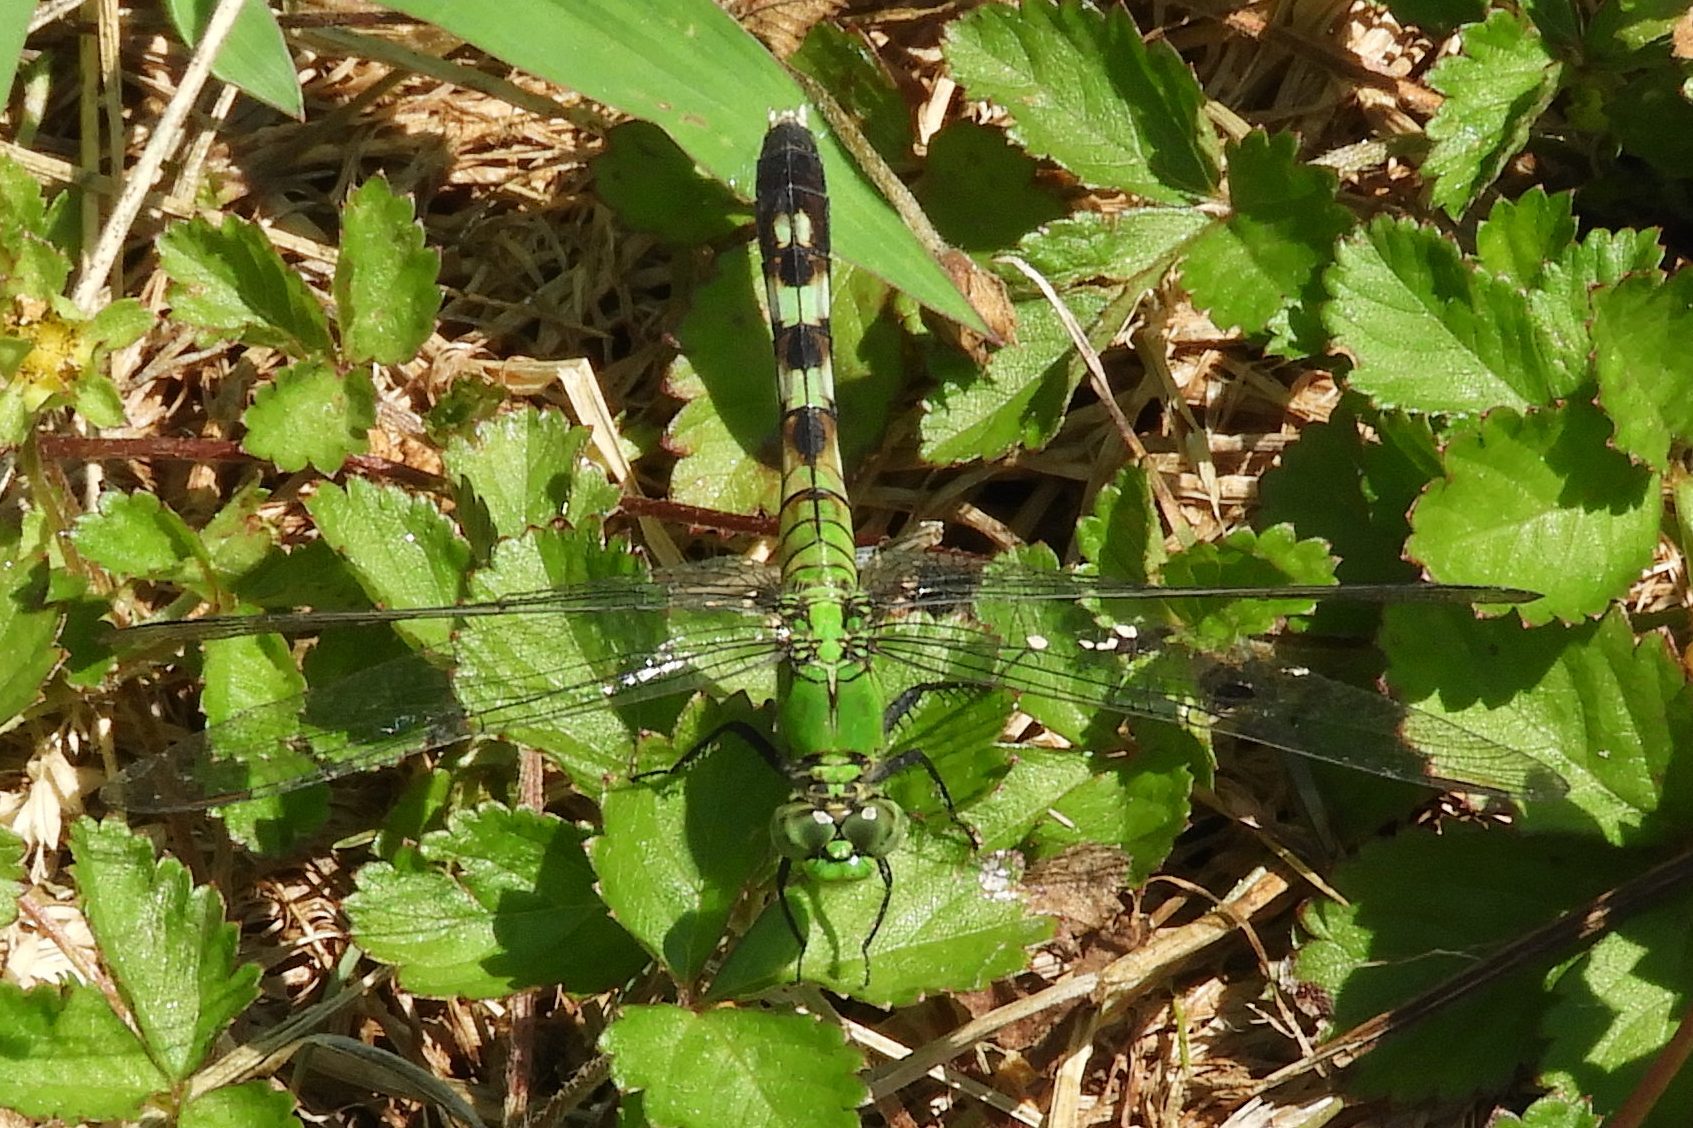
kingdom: Animalia
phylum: Arthropoda
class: Insecta
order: Odonata
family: Libellulidae
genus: Erythemis
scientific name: Erythemis simplicicollis
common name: Eastern pondhawk
